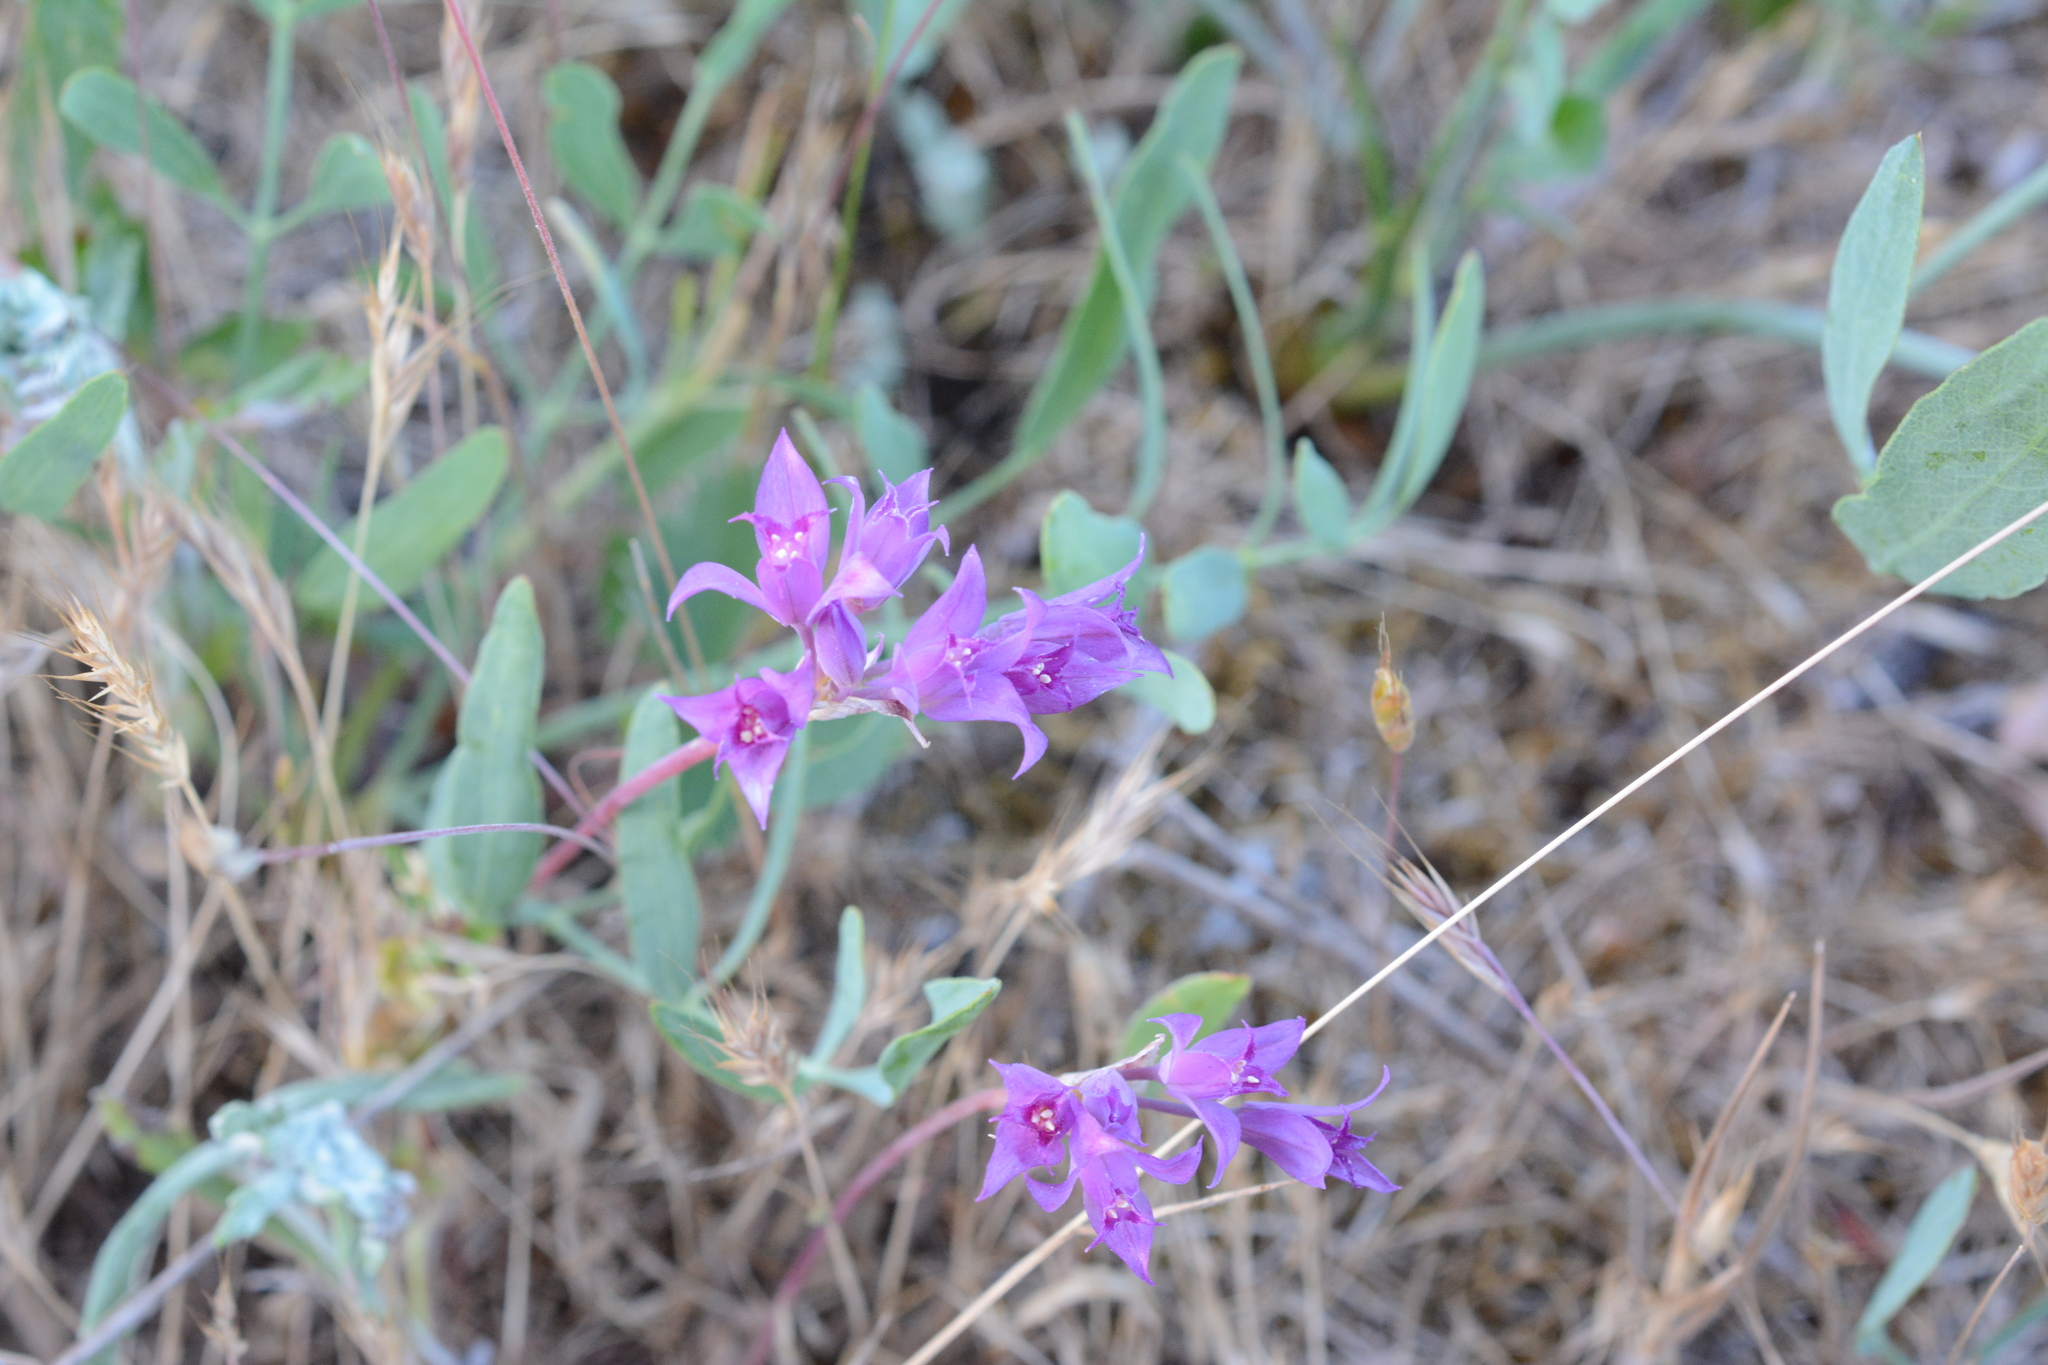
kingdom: Plantae
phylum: Tracheophyta
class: Liliopsida
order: Asparagales
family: Amaryllidaceae
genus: Allium
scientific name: Allium acuminatum
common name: Hooker's onion
